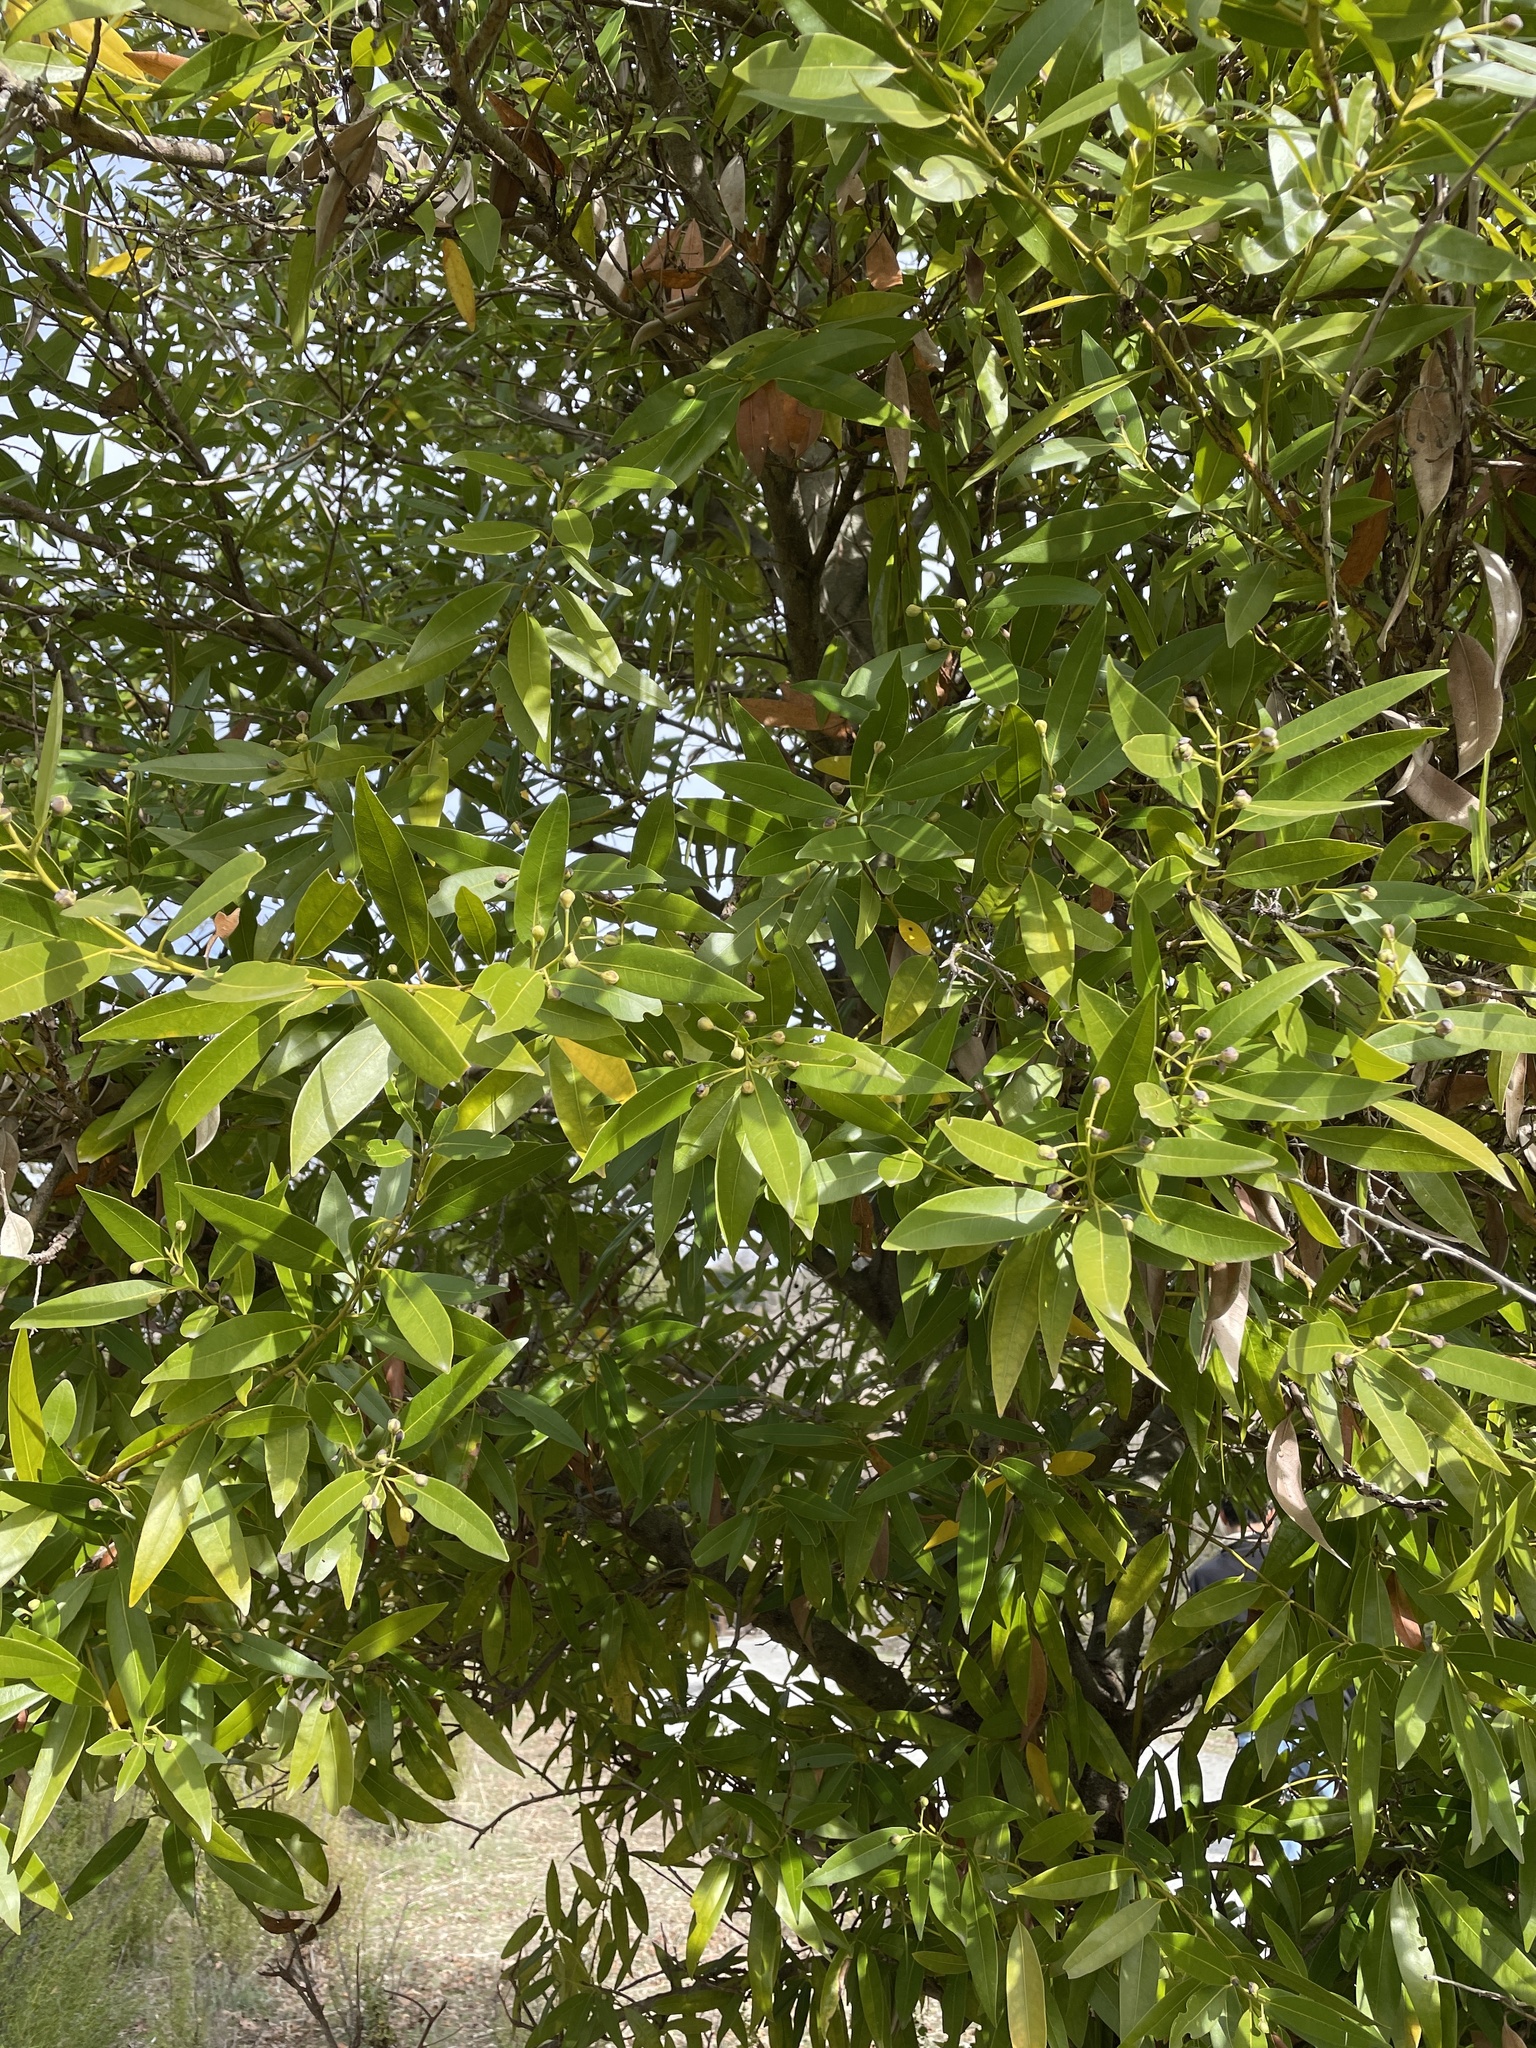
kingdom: Plantae
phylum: Tracheophyta
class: Magnoliopsida
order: Laurales
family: Lauraceae
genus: Umbellularia
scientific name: Umbellularia californica
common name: California bay
